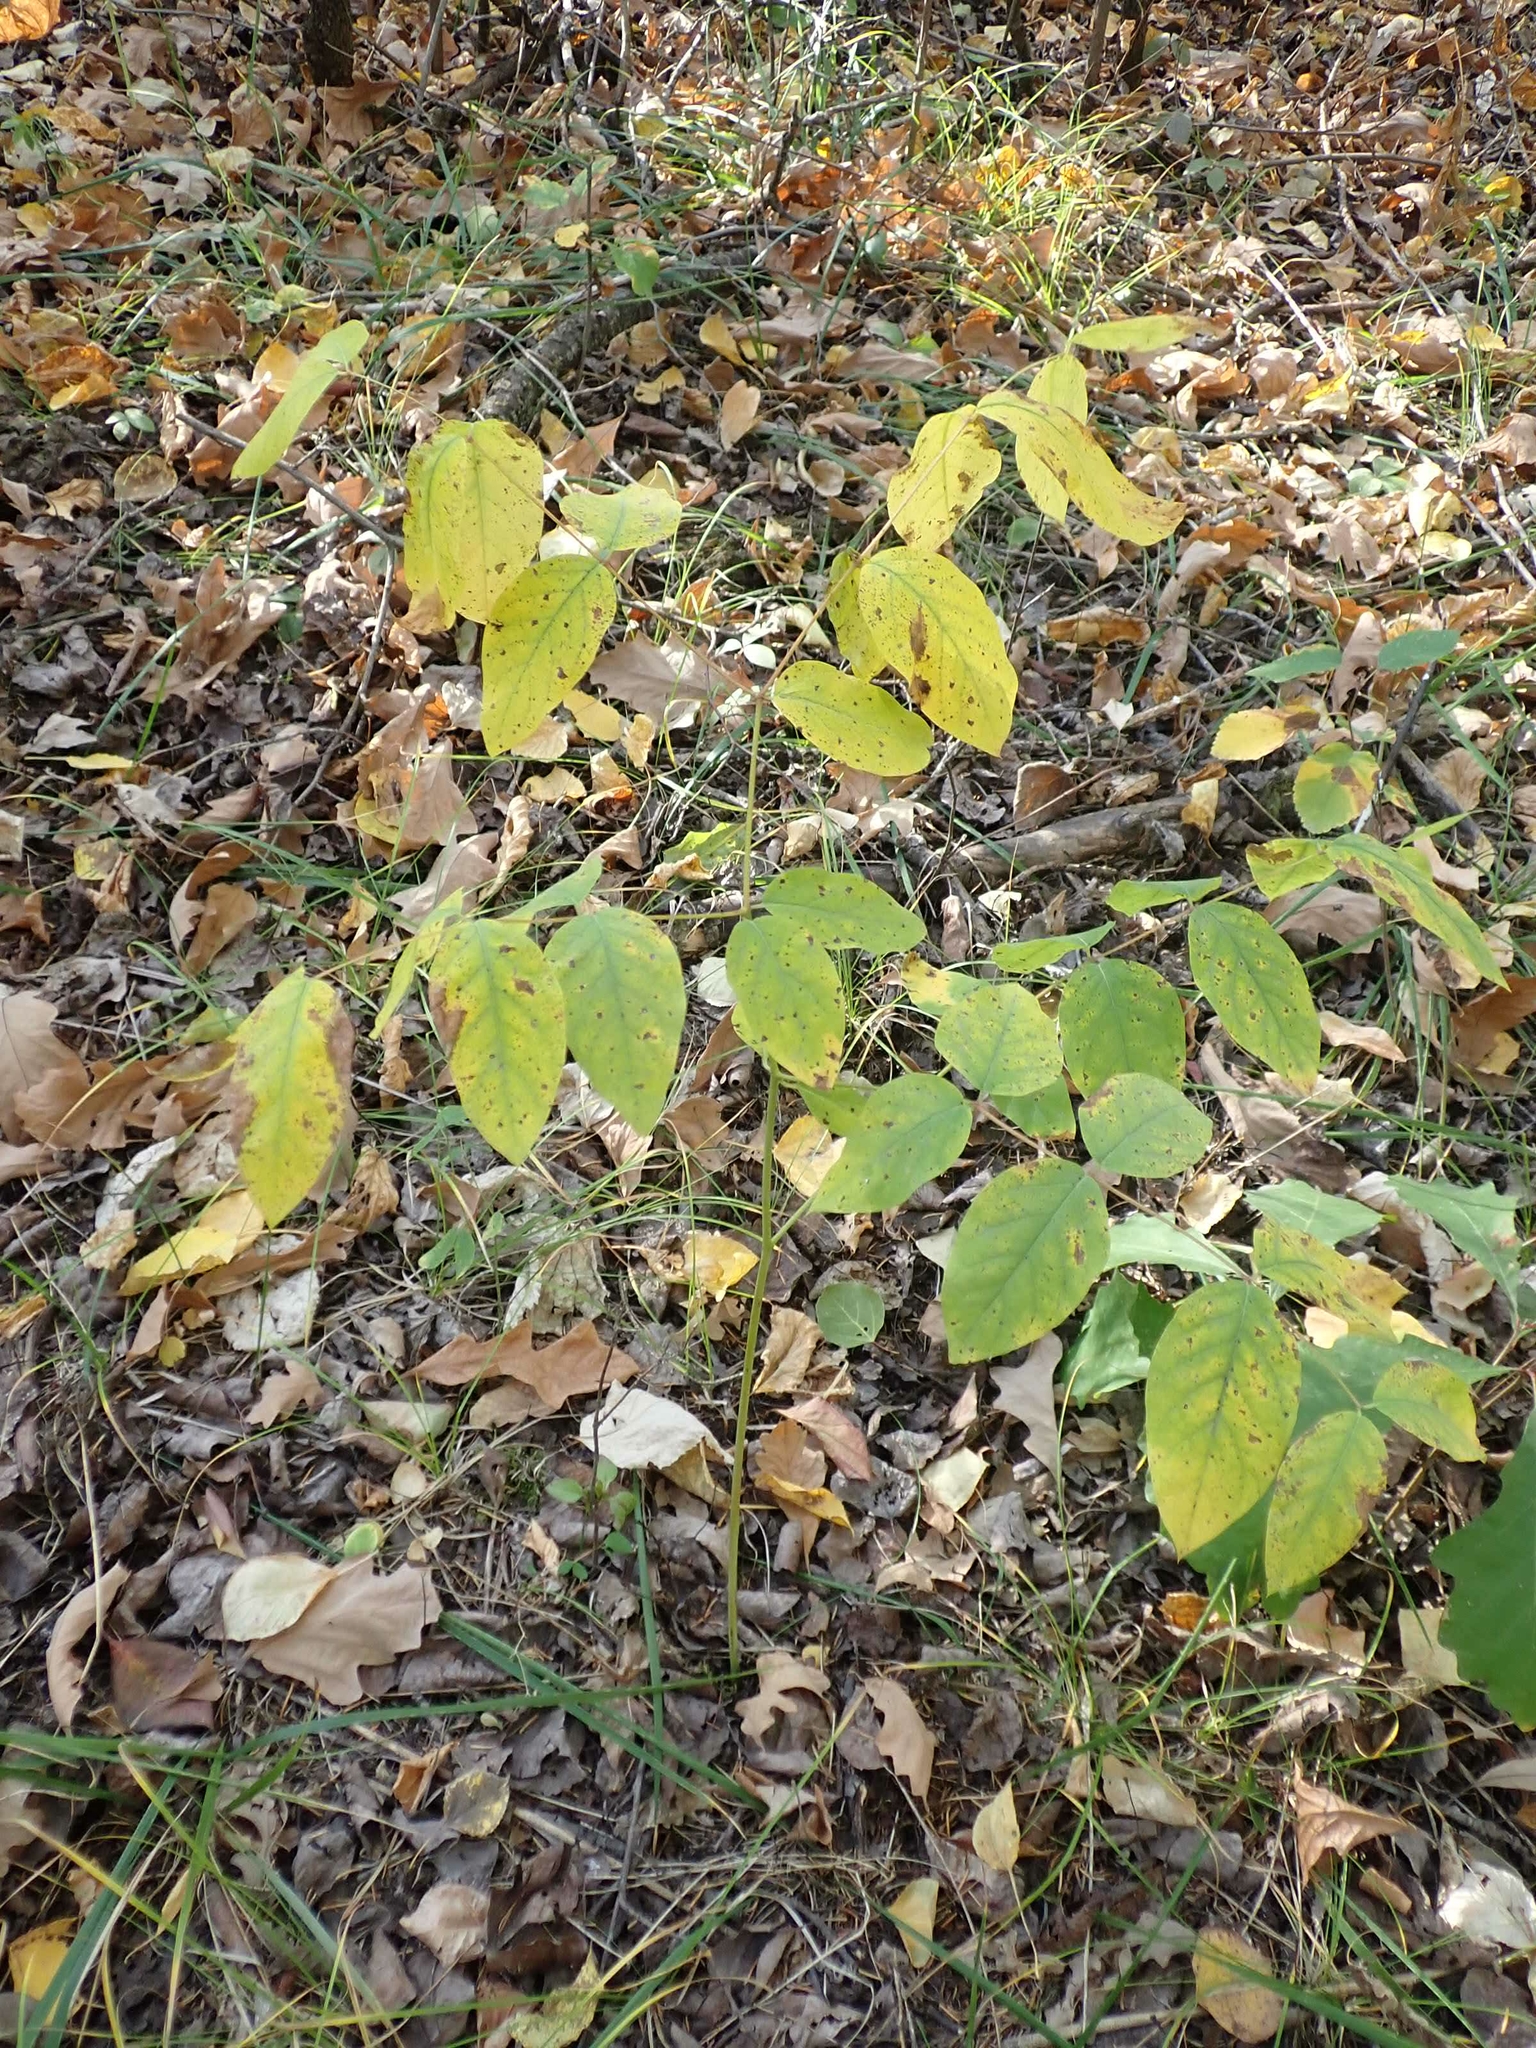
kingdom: Plantae
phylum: Tracheophyta
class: Magnoliopsida
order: Gentianales
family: Apocynaceae
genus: Apocynum
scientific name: Apocynum androsaemifolium
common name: Spreading dogbane
